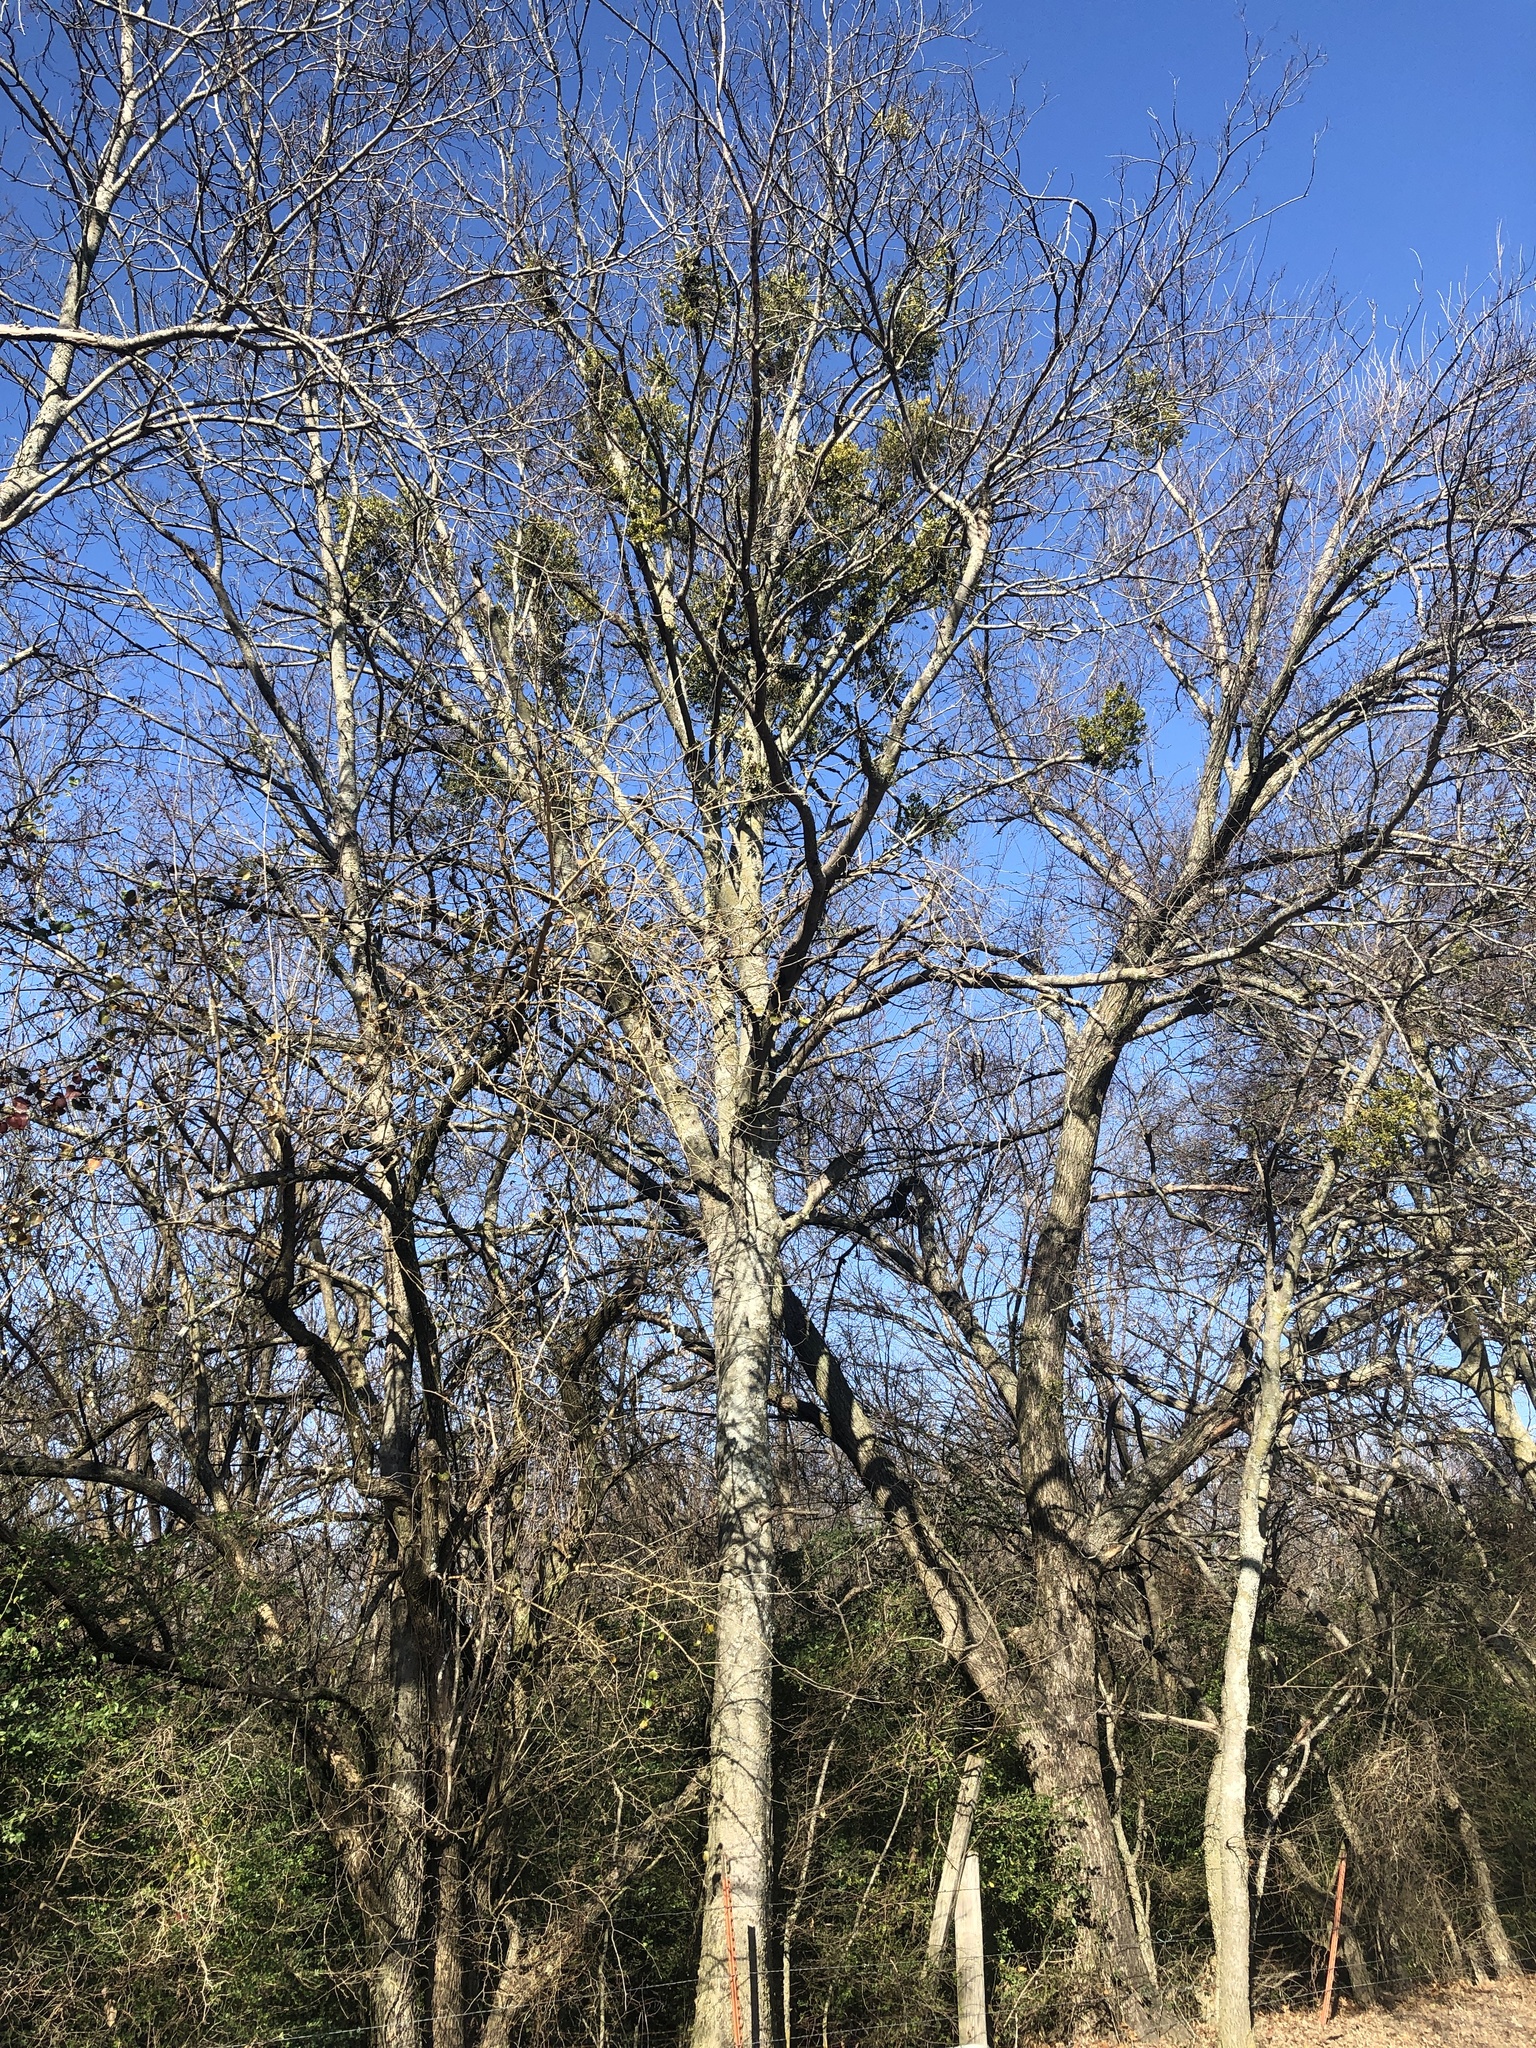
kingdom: Plantae
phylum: Tracheophyta
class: Magnoliopsida
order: Rosales
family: Cannabaceae
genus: Celtis
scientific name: Celtis laevigata
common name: Sugarberry
